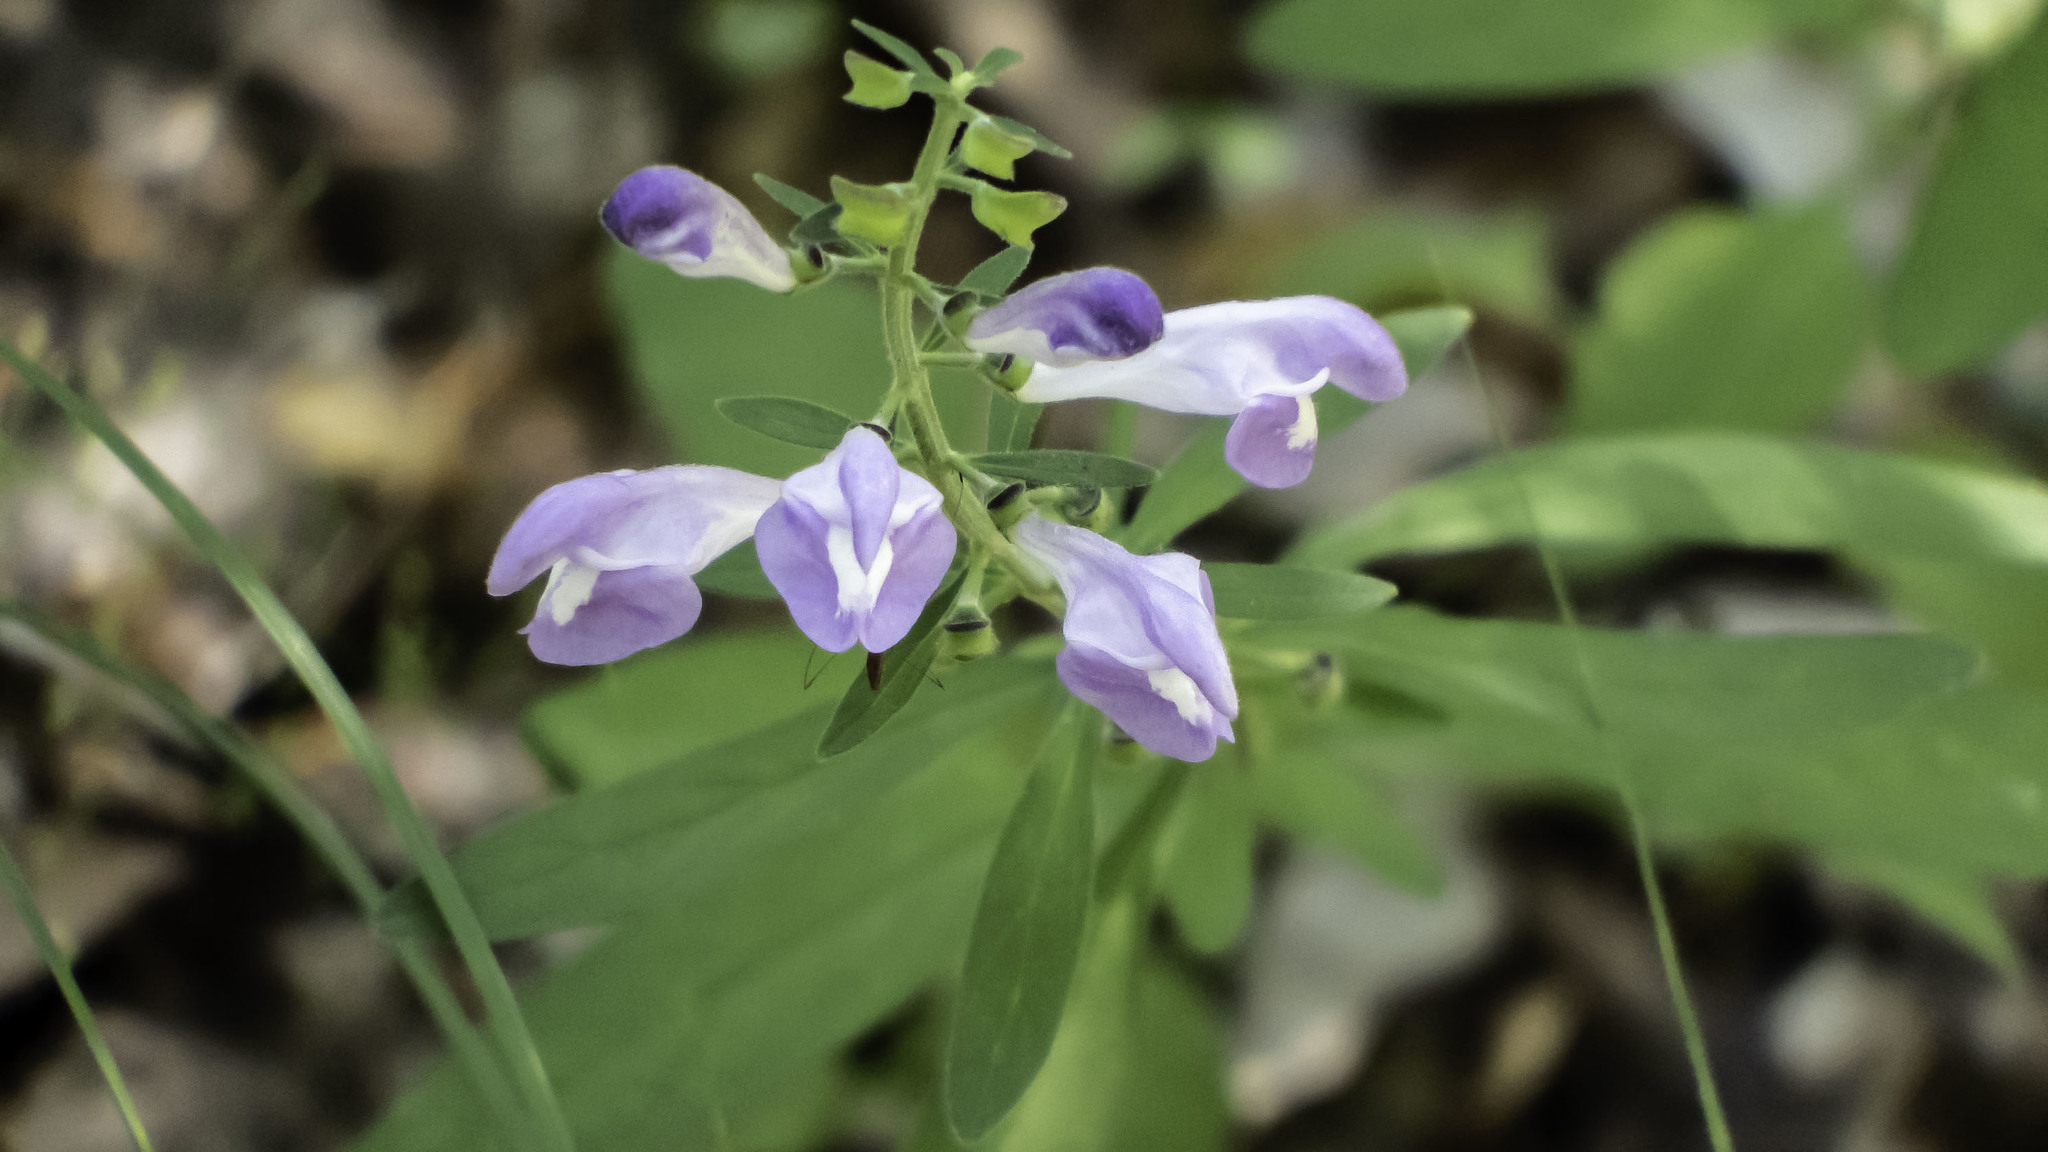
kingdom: Plantae
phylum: Tracheophyta
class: Magnoliopsida
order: Lamiales
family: Lamiaceae
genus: Scutellaria
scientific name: Scutellaria integrifolia
